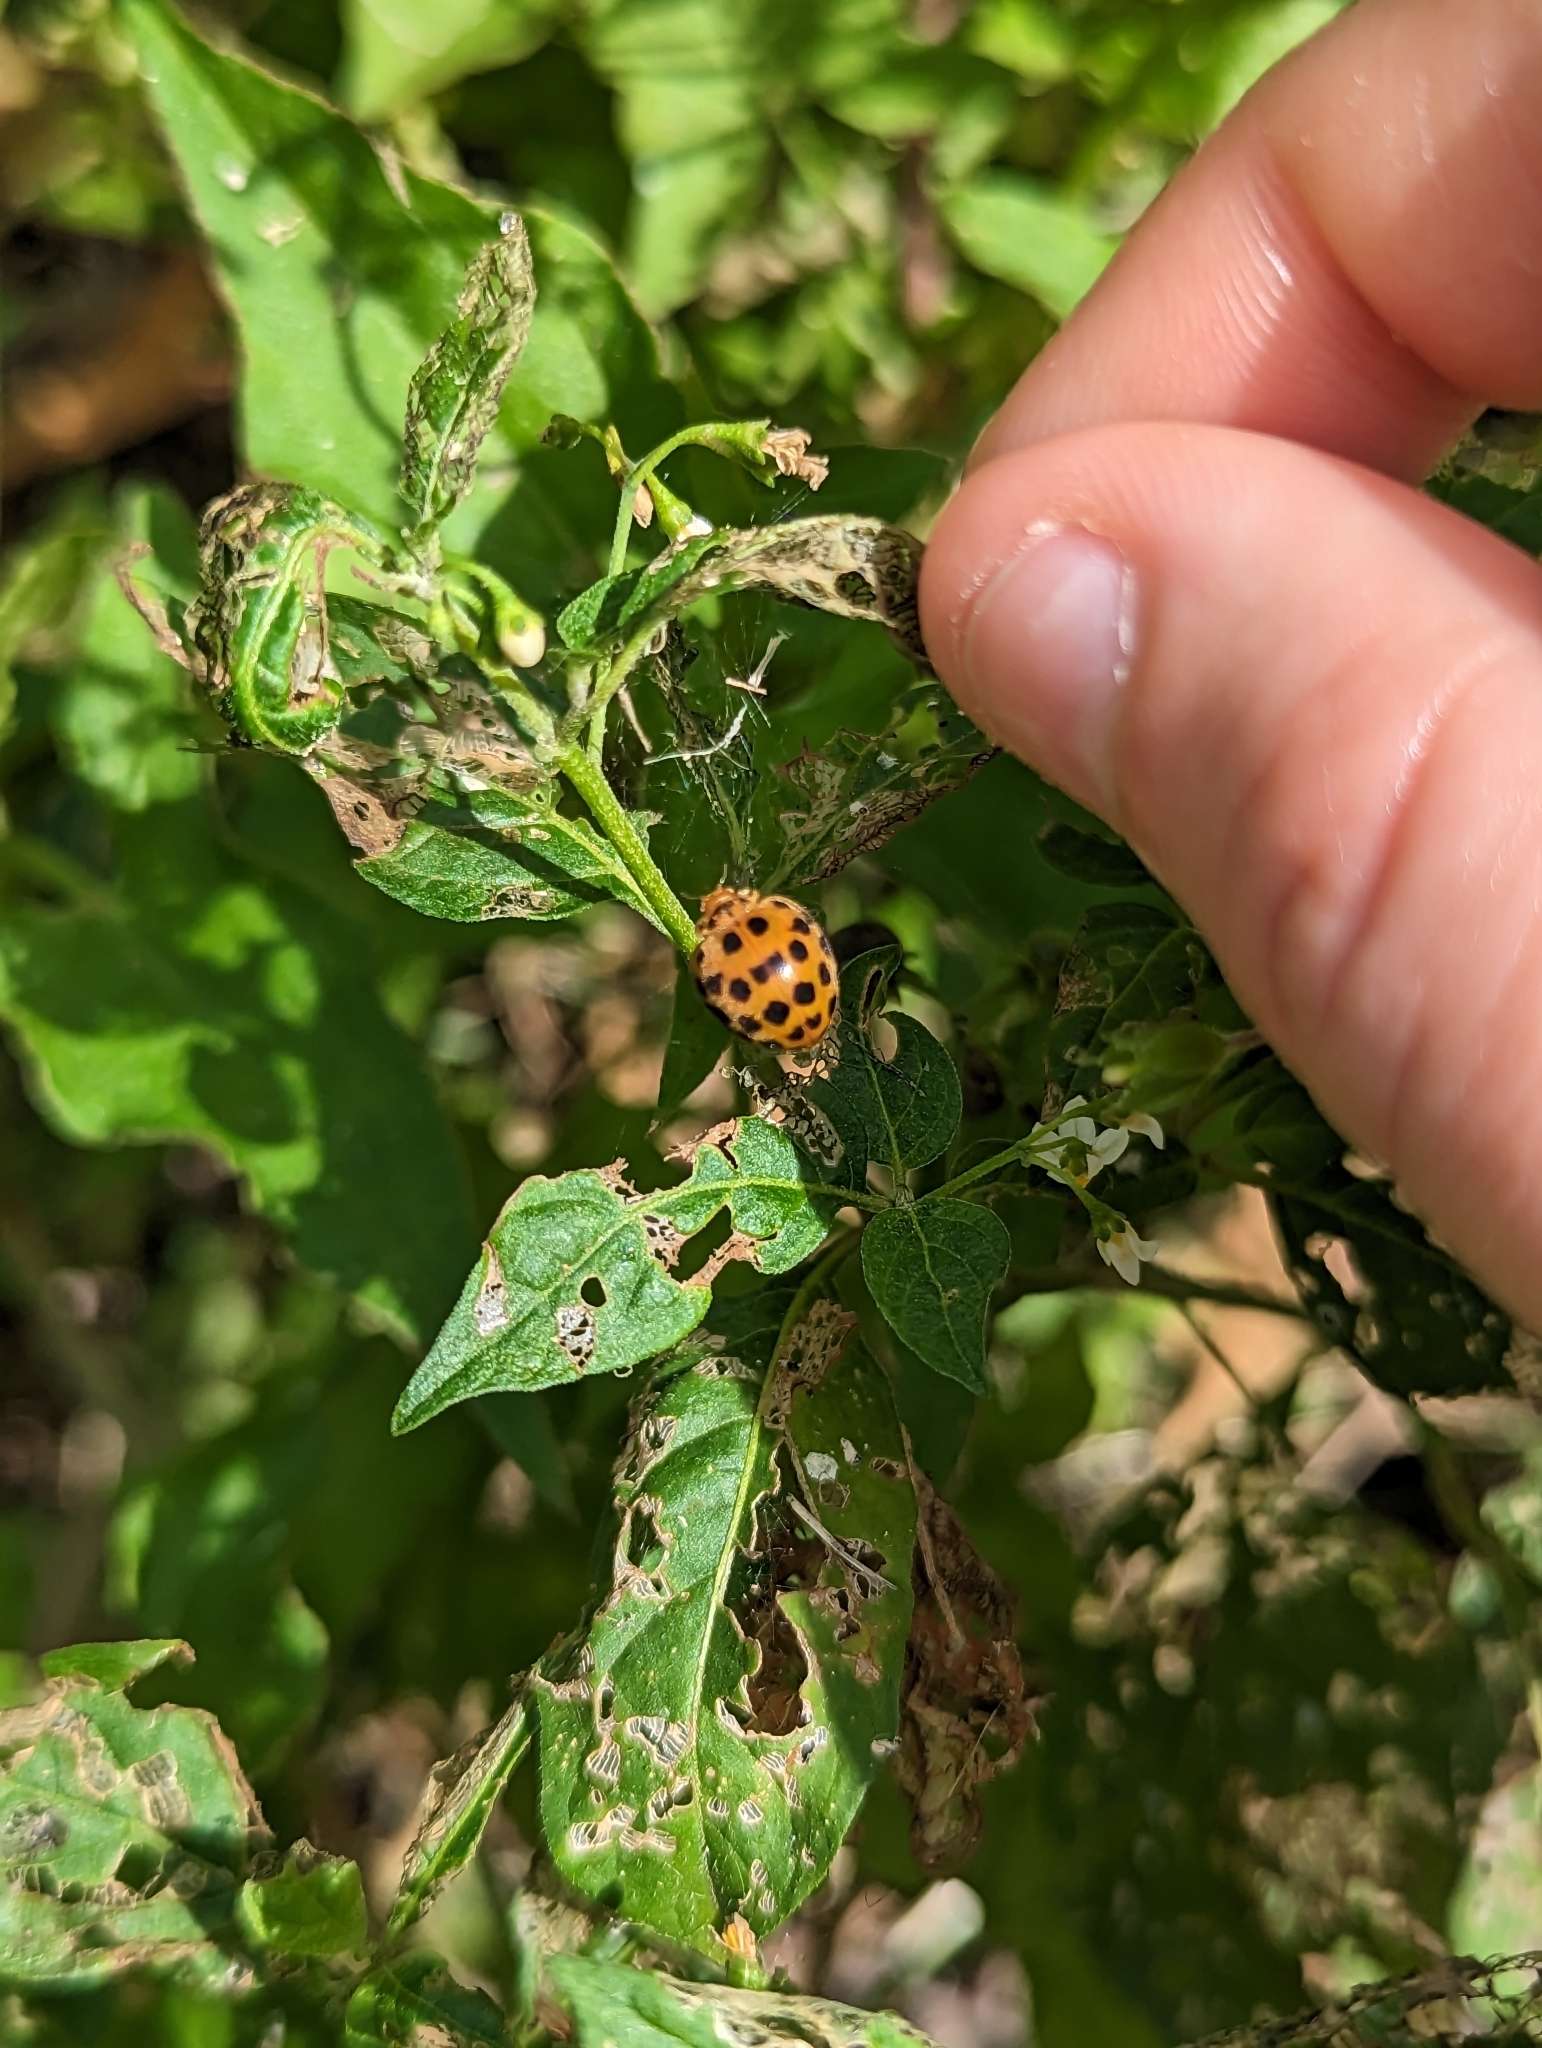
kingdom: Animalia
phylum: Arthropoda
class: Insecta
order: Coleoptera
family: Coccinellidae
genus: Henosepilachna
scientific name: Henosepilachna vigintioctopunctata
